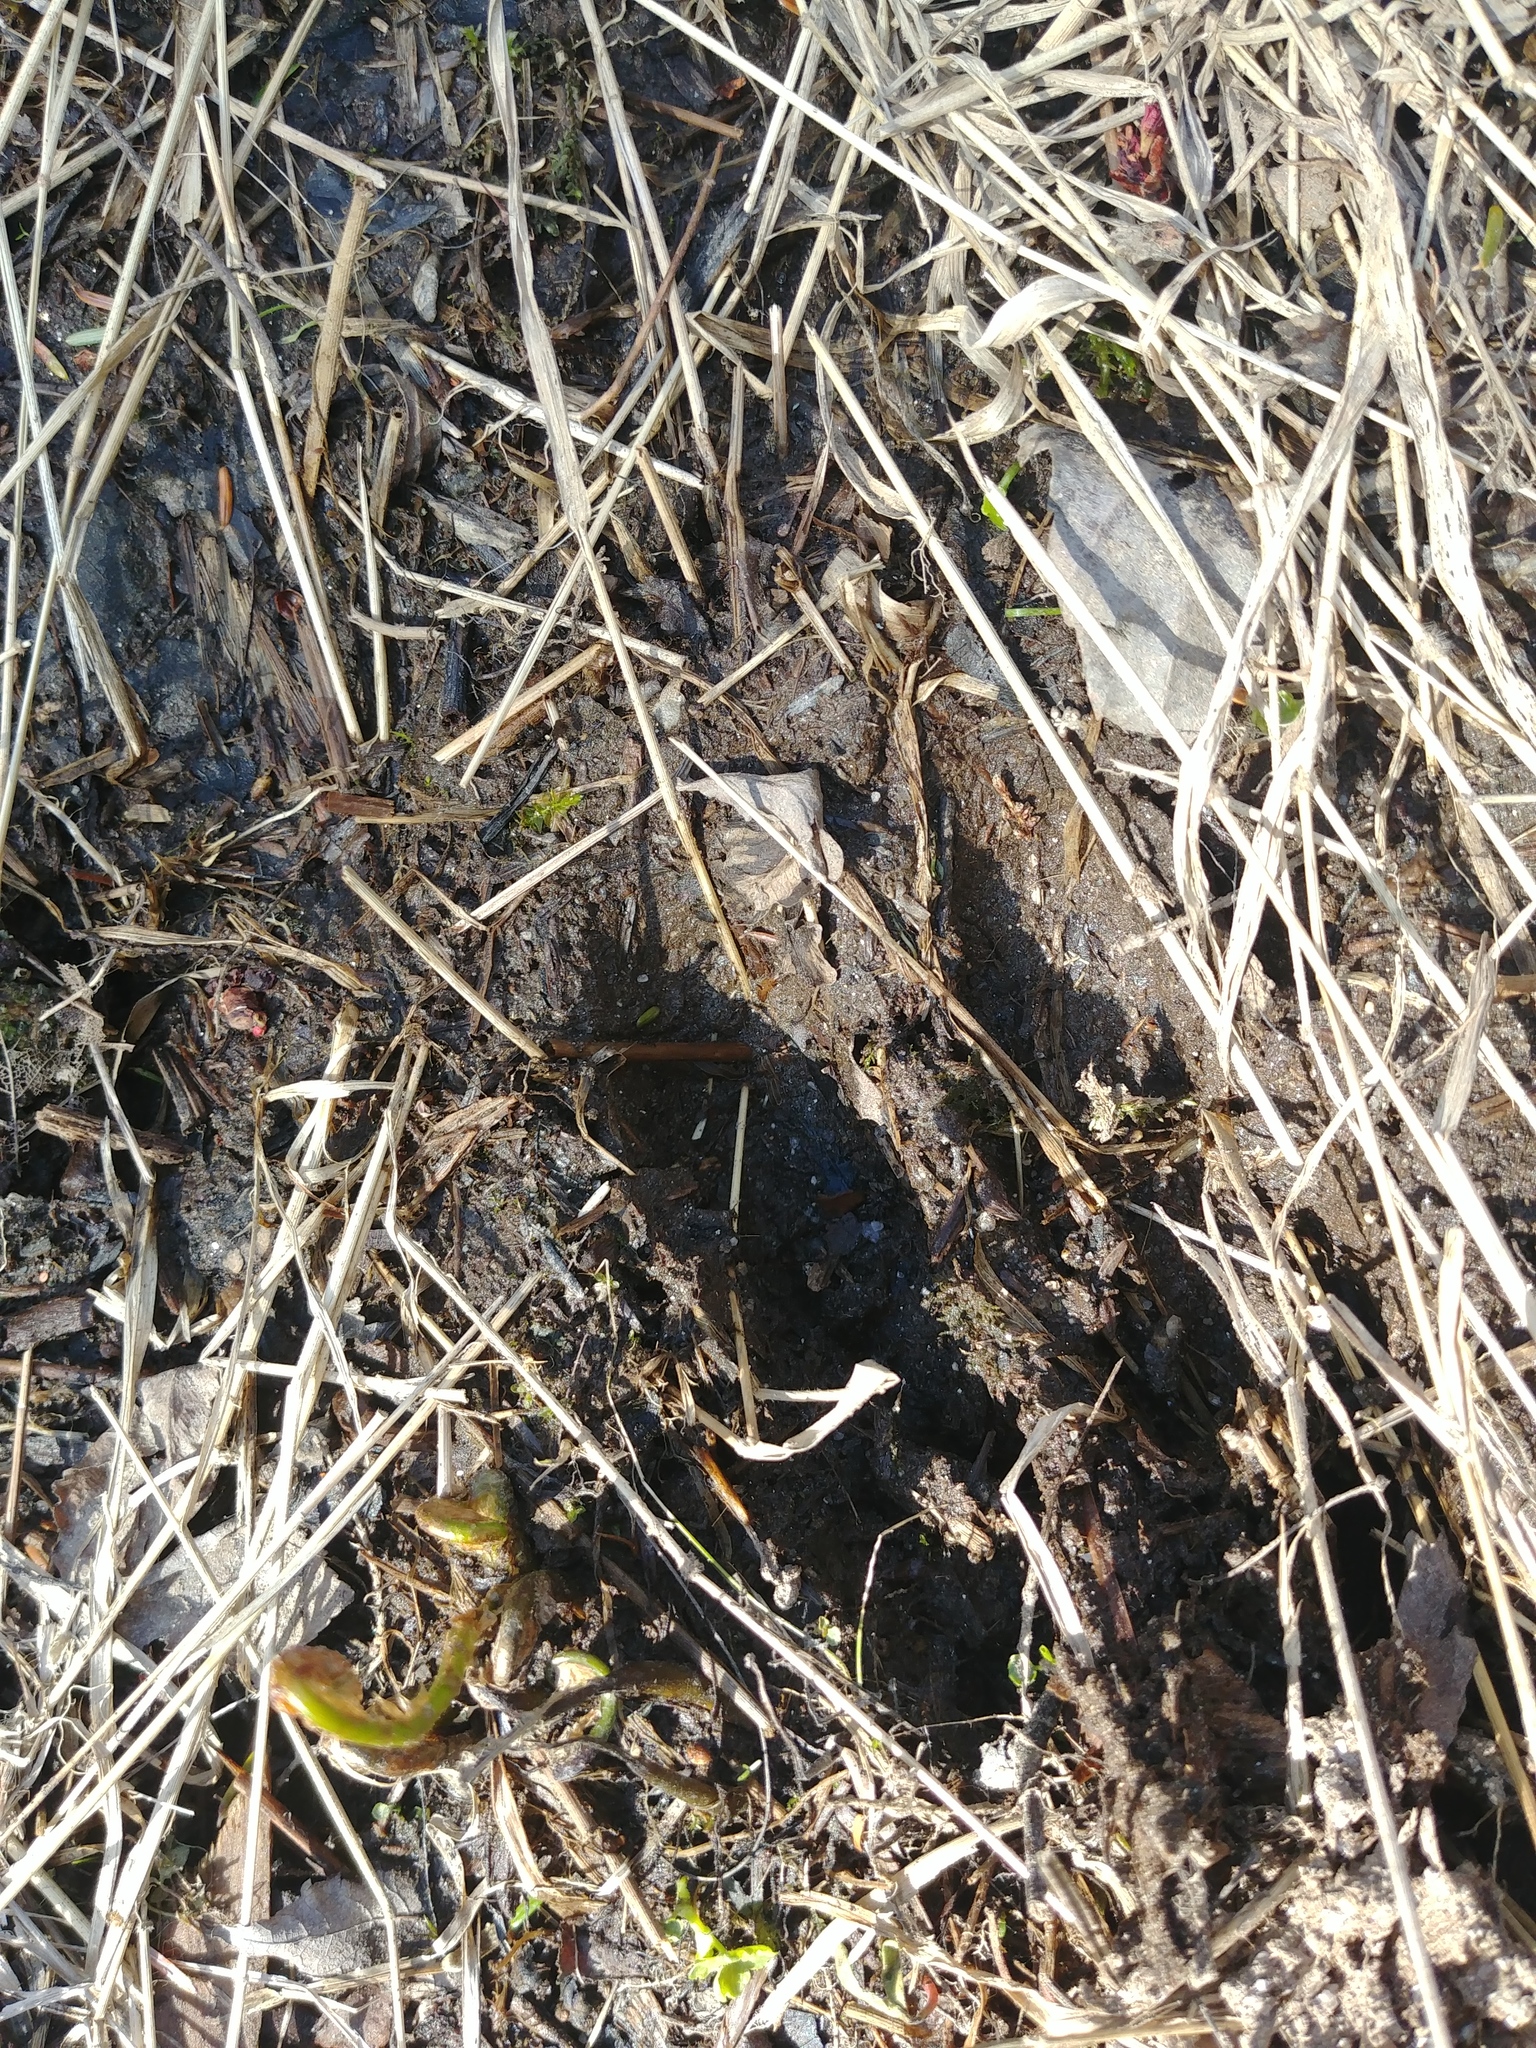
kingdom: Animalia
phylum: Chordata
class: Mammalia
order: Artiodactyla
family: Cervidae
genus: Odocoileus
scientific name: Odocoileus virginianus
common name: White-tailed deer
